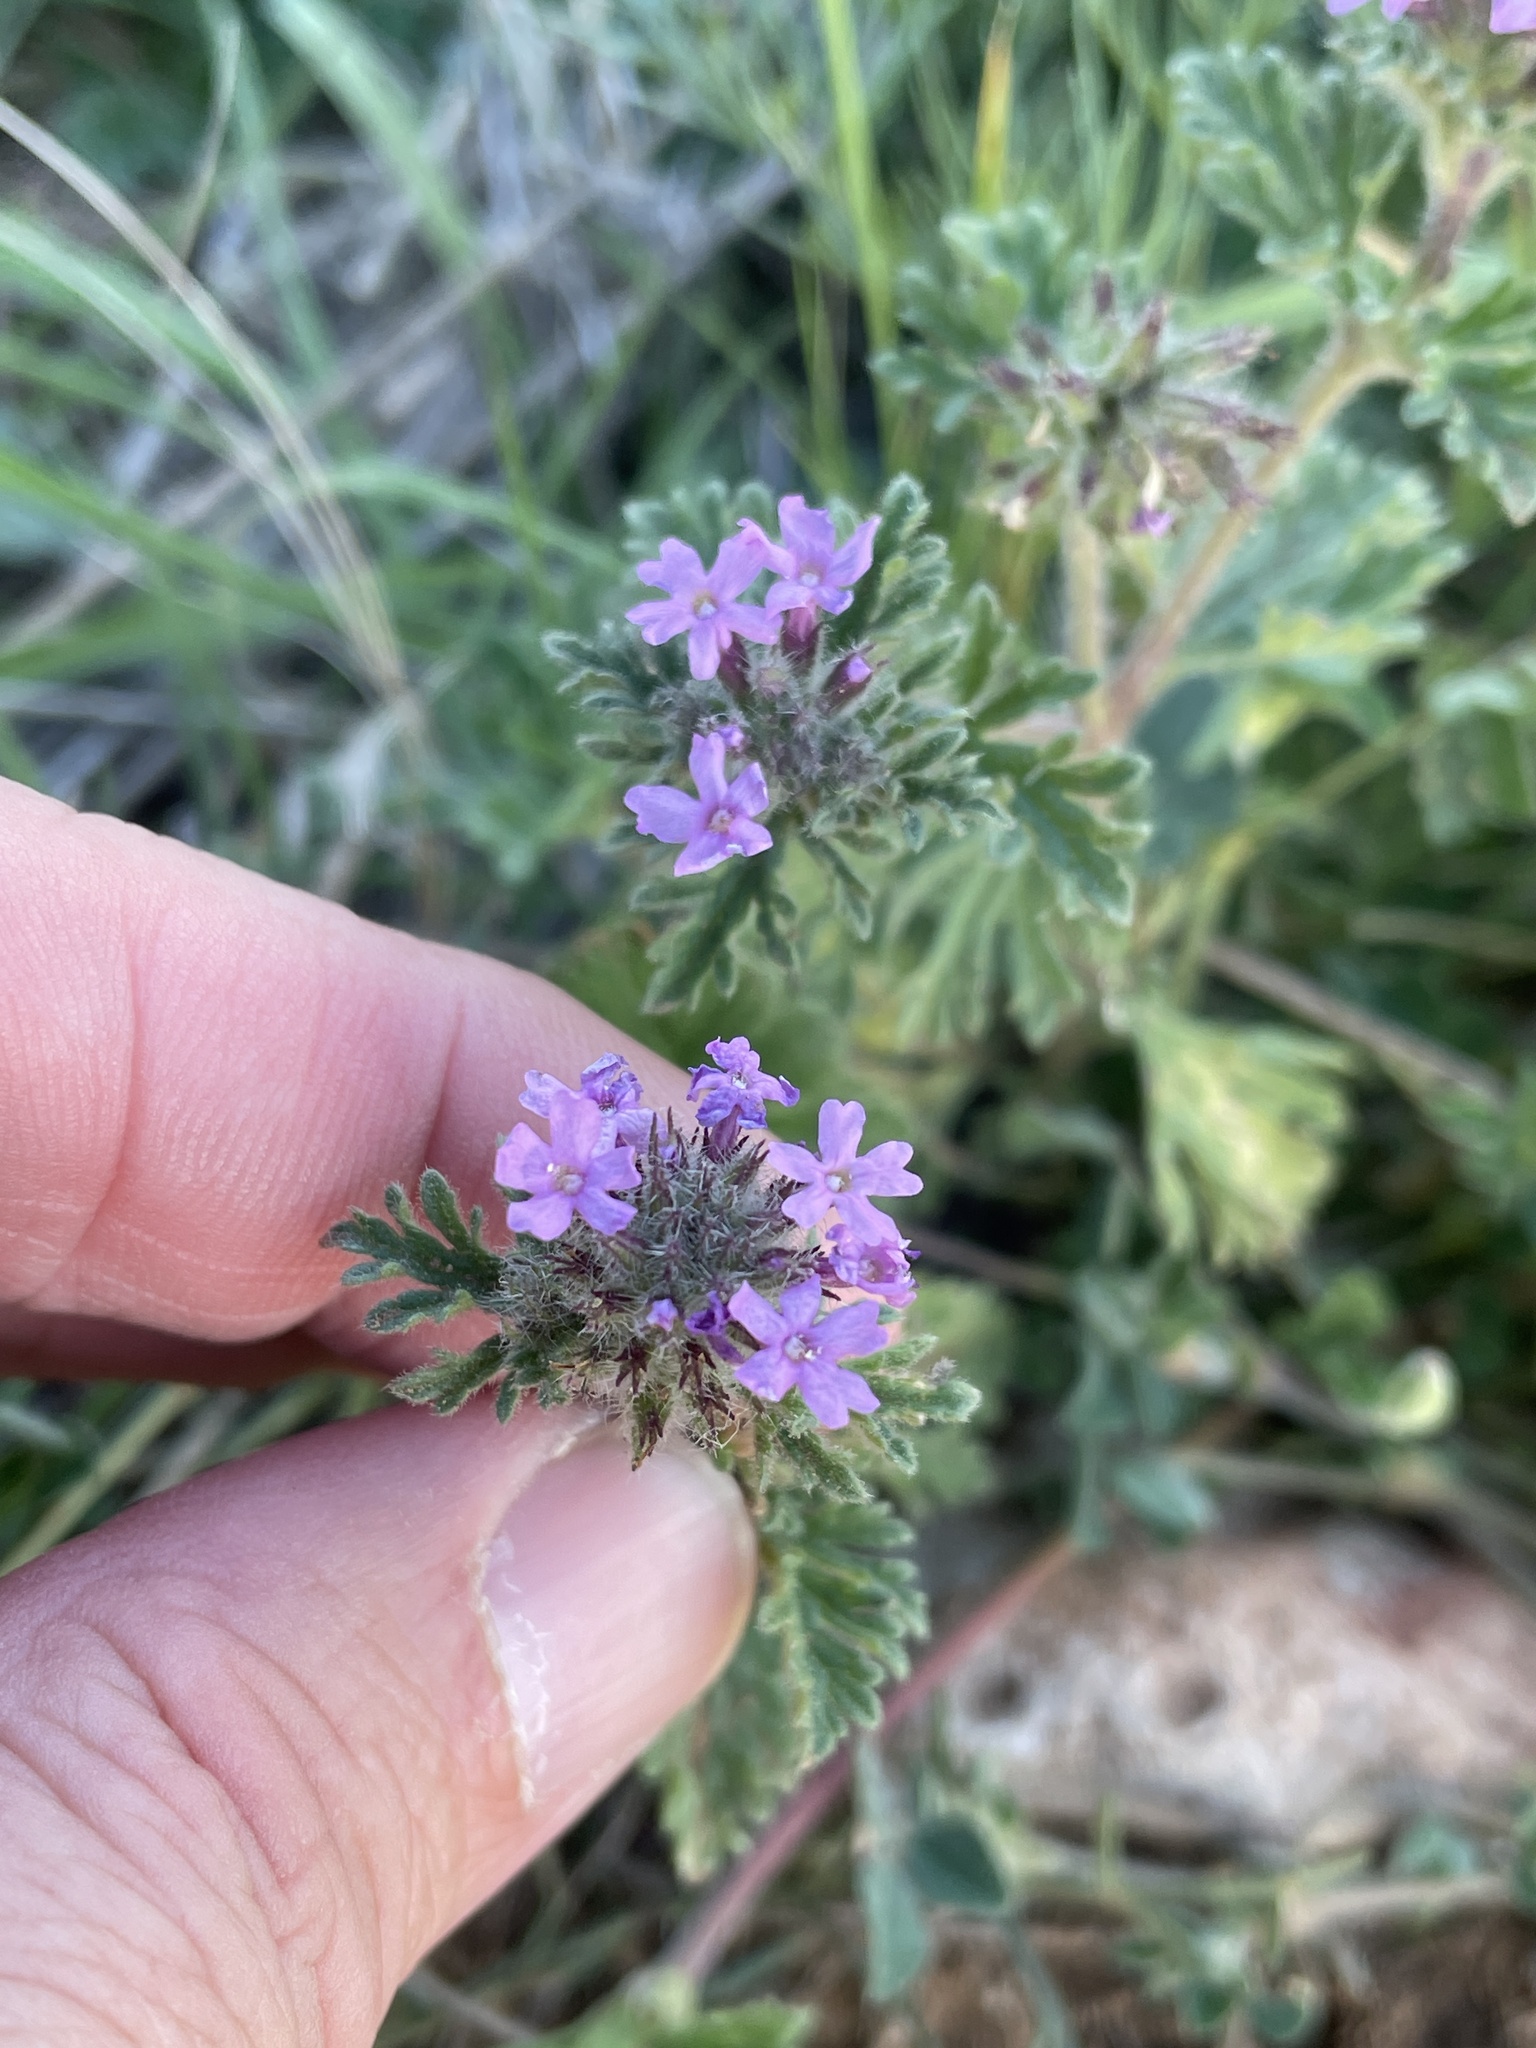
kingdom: Plantae
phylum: Tracheophyta
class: Magnoliopsida
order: Lamiales
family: Verbenaceae
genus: Verbena
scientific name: Verbena pumila
